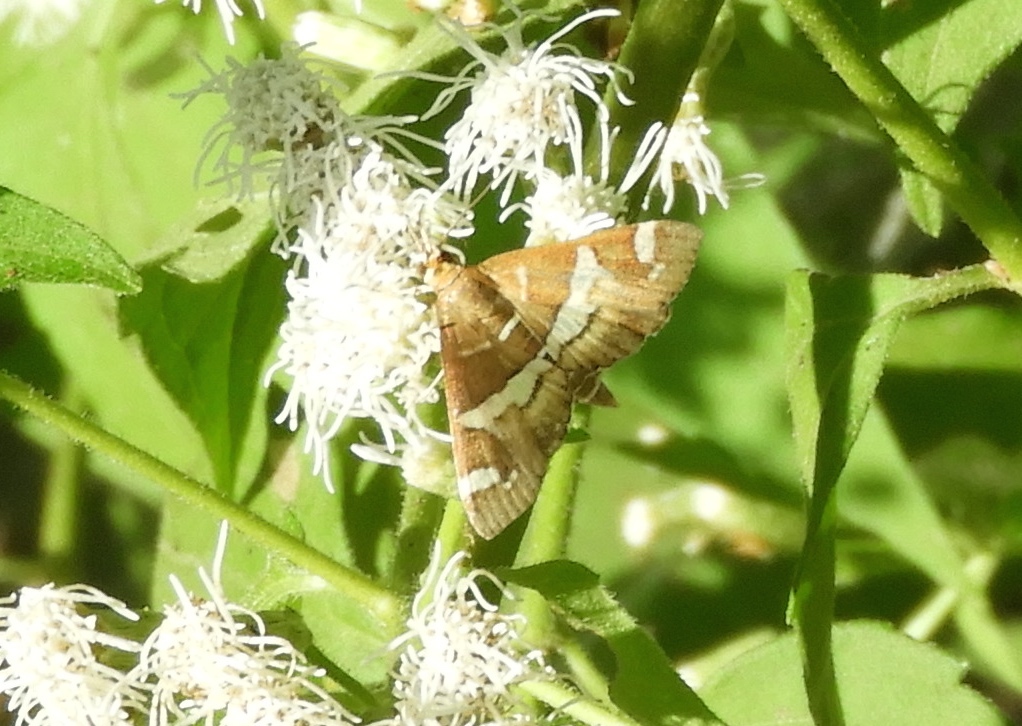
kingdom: Animalia
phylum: Arthropoda
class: Insecta
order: Lepidoptera
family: Crambidae
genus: Spoladea
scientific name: Spoladea recurvalis
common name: Beet webworm moth
